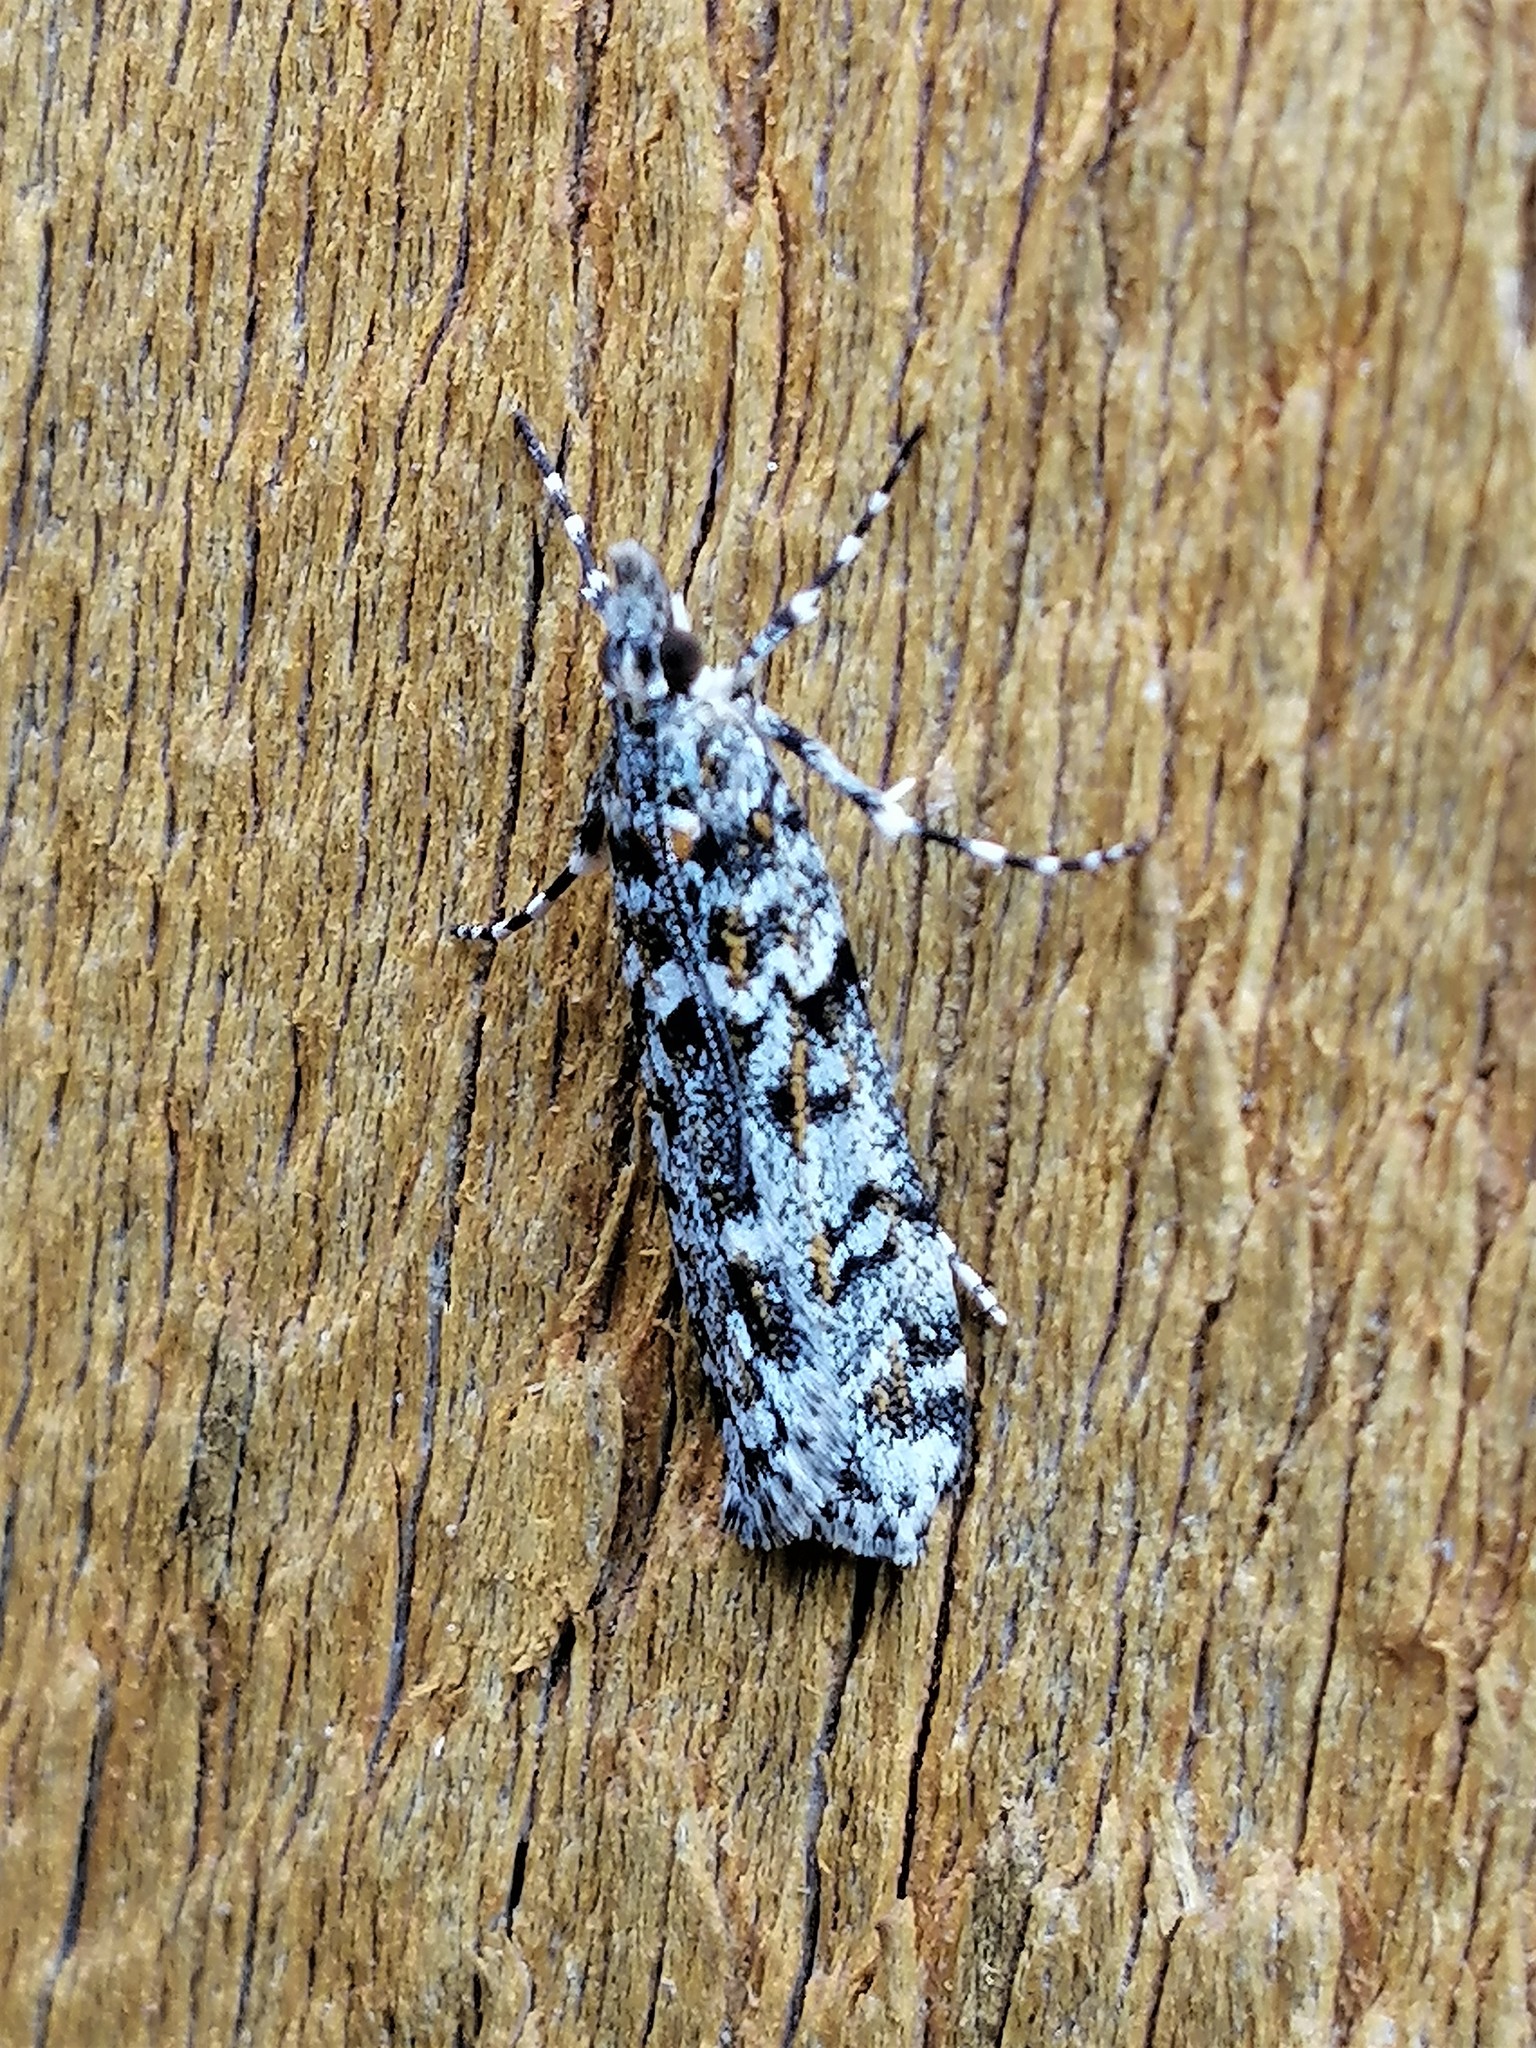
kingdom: Animalia
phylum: Arthropoda
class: Insecta
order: Lepidoptera
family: Crambidae
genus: Eudonia
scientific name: Eudonia
